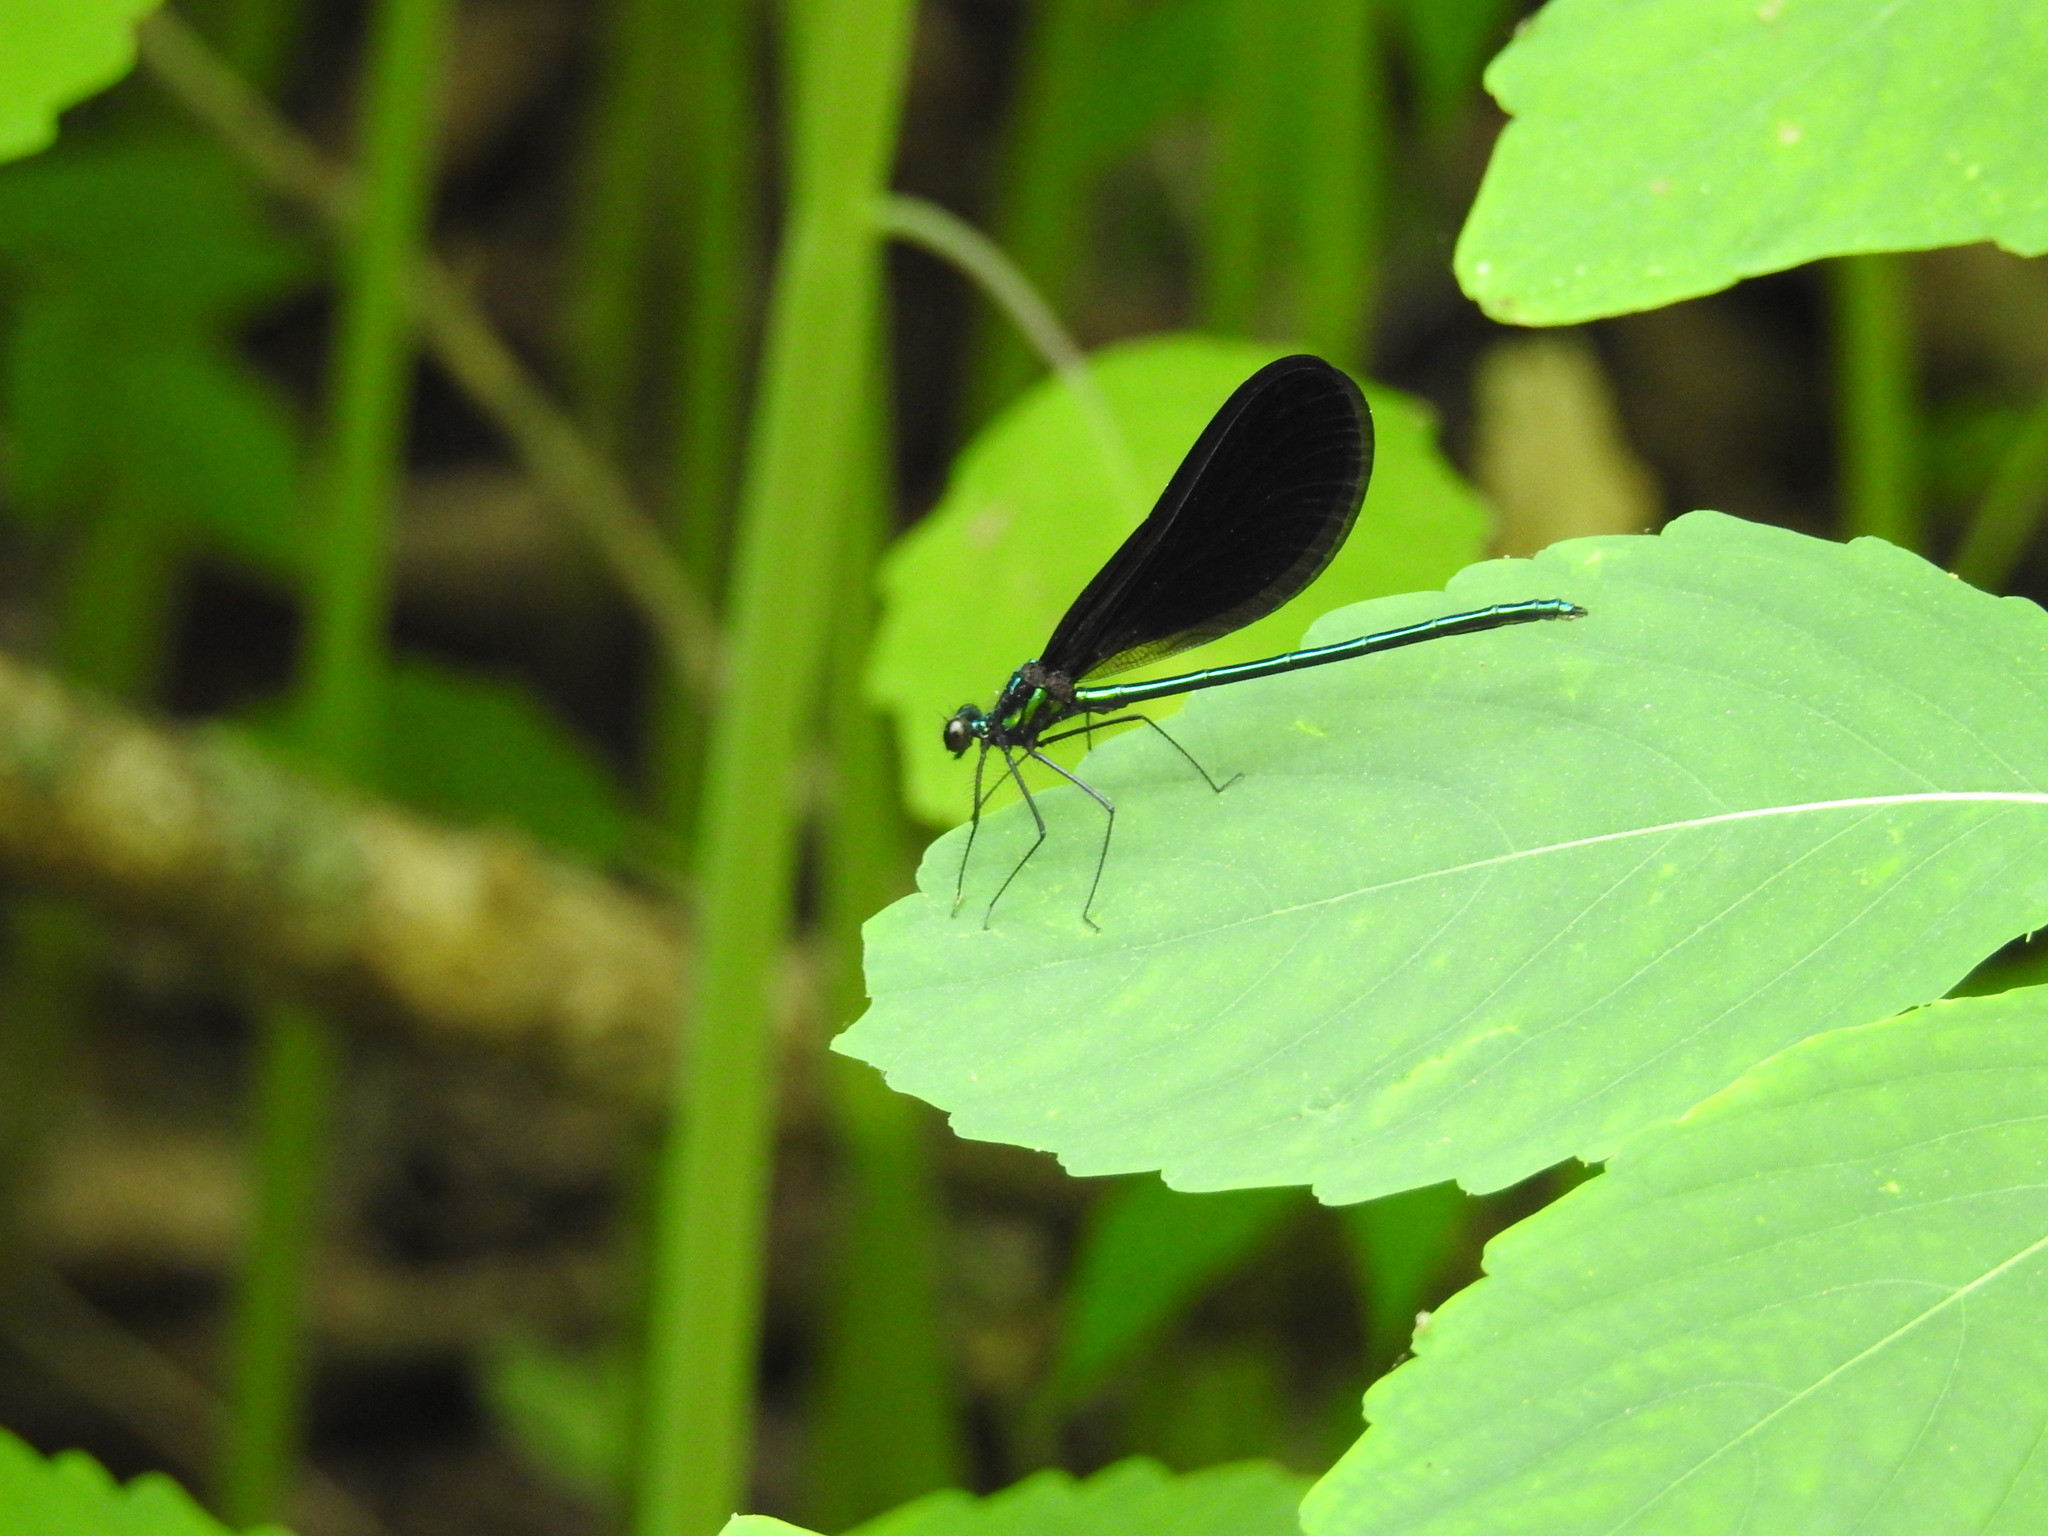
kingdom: Animalia
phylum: Arthropoda
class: Insecta
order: Odonata
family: Calopterygidae
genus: Calopteryx
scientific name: Calopteryx maculata
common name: Ebony jewelwing
